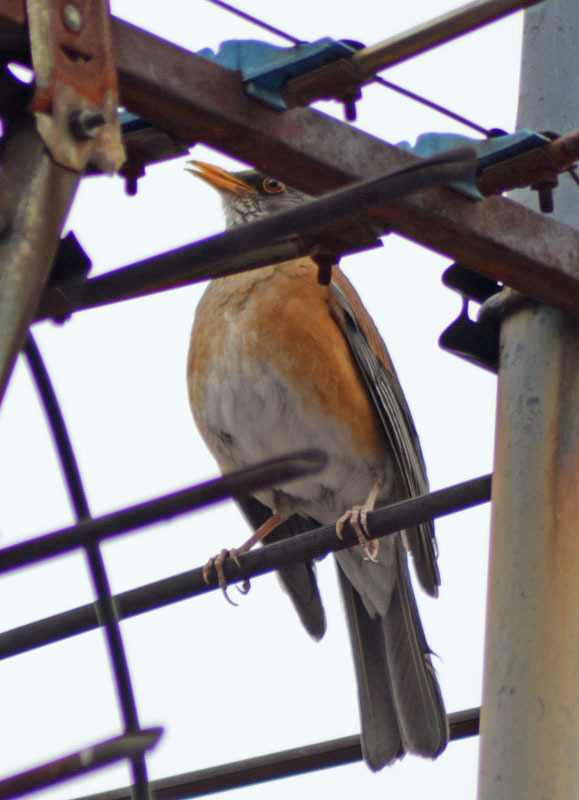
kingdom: Animalia
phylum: Chordata
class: Aves
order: Passeriformes
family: Turdidae
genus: Turdus
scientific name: Turdus rufopalliatus
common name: Rufous-backed robin
